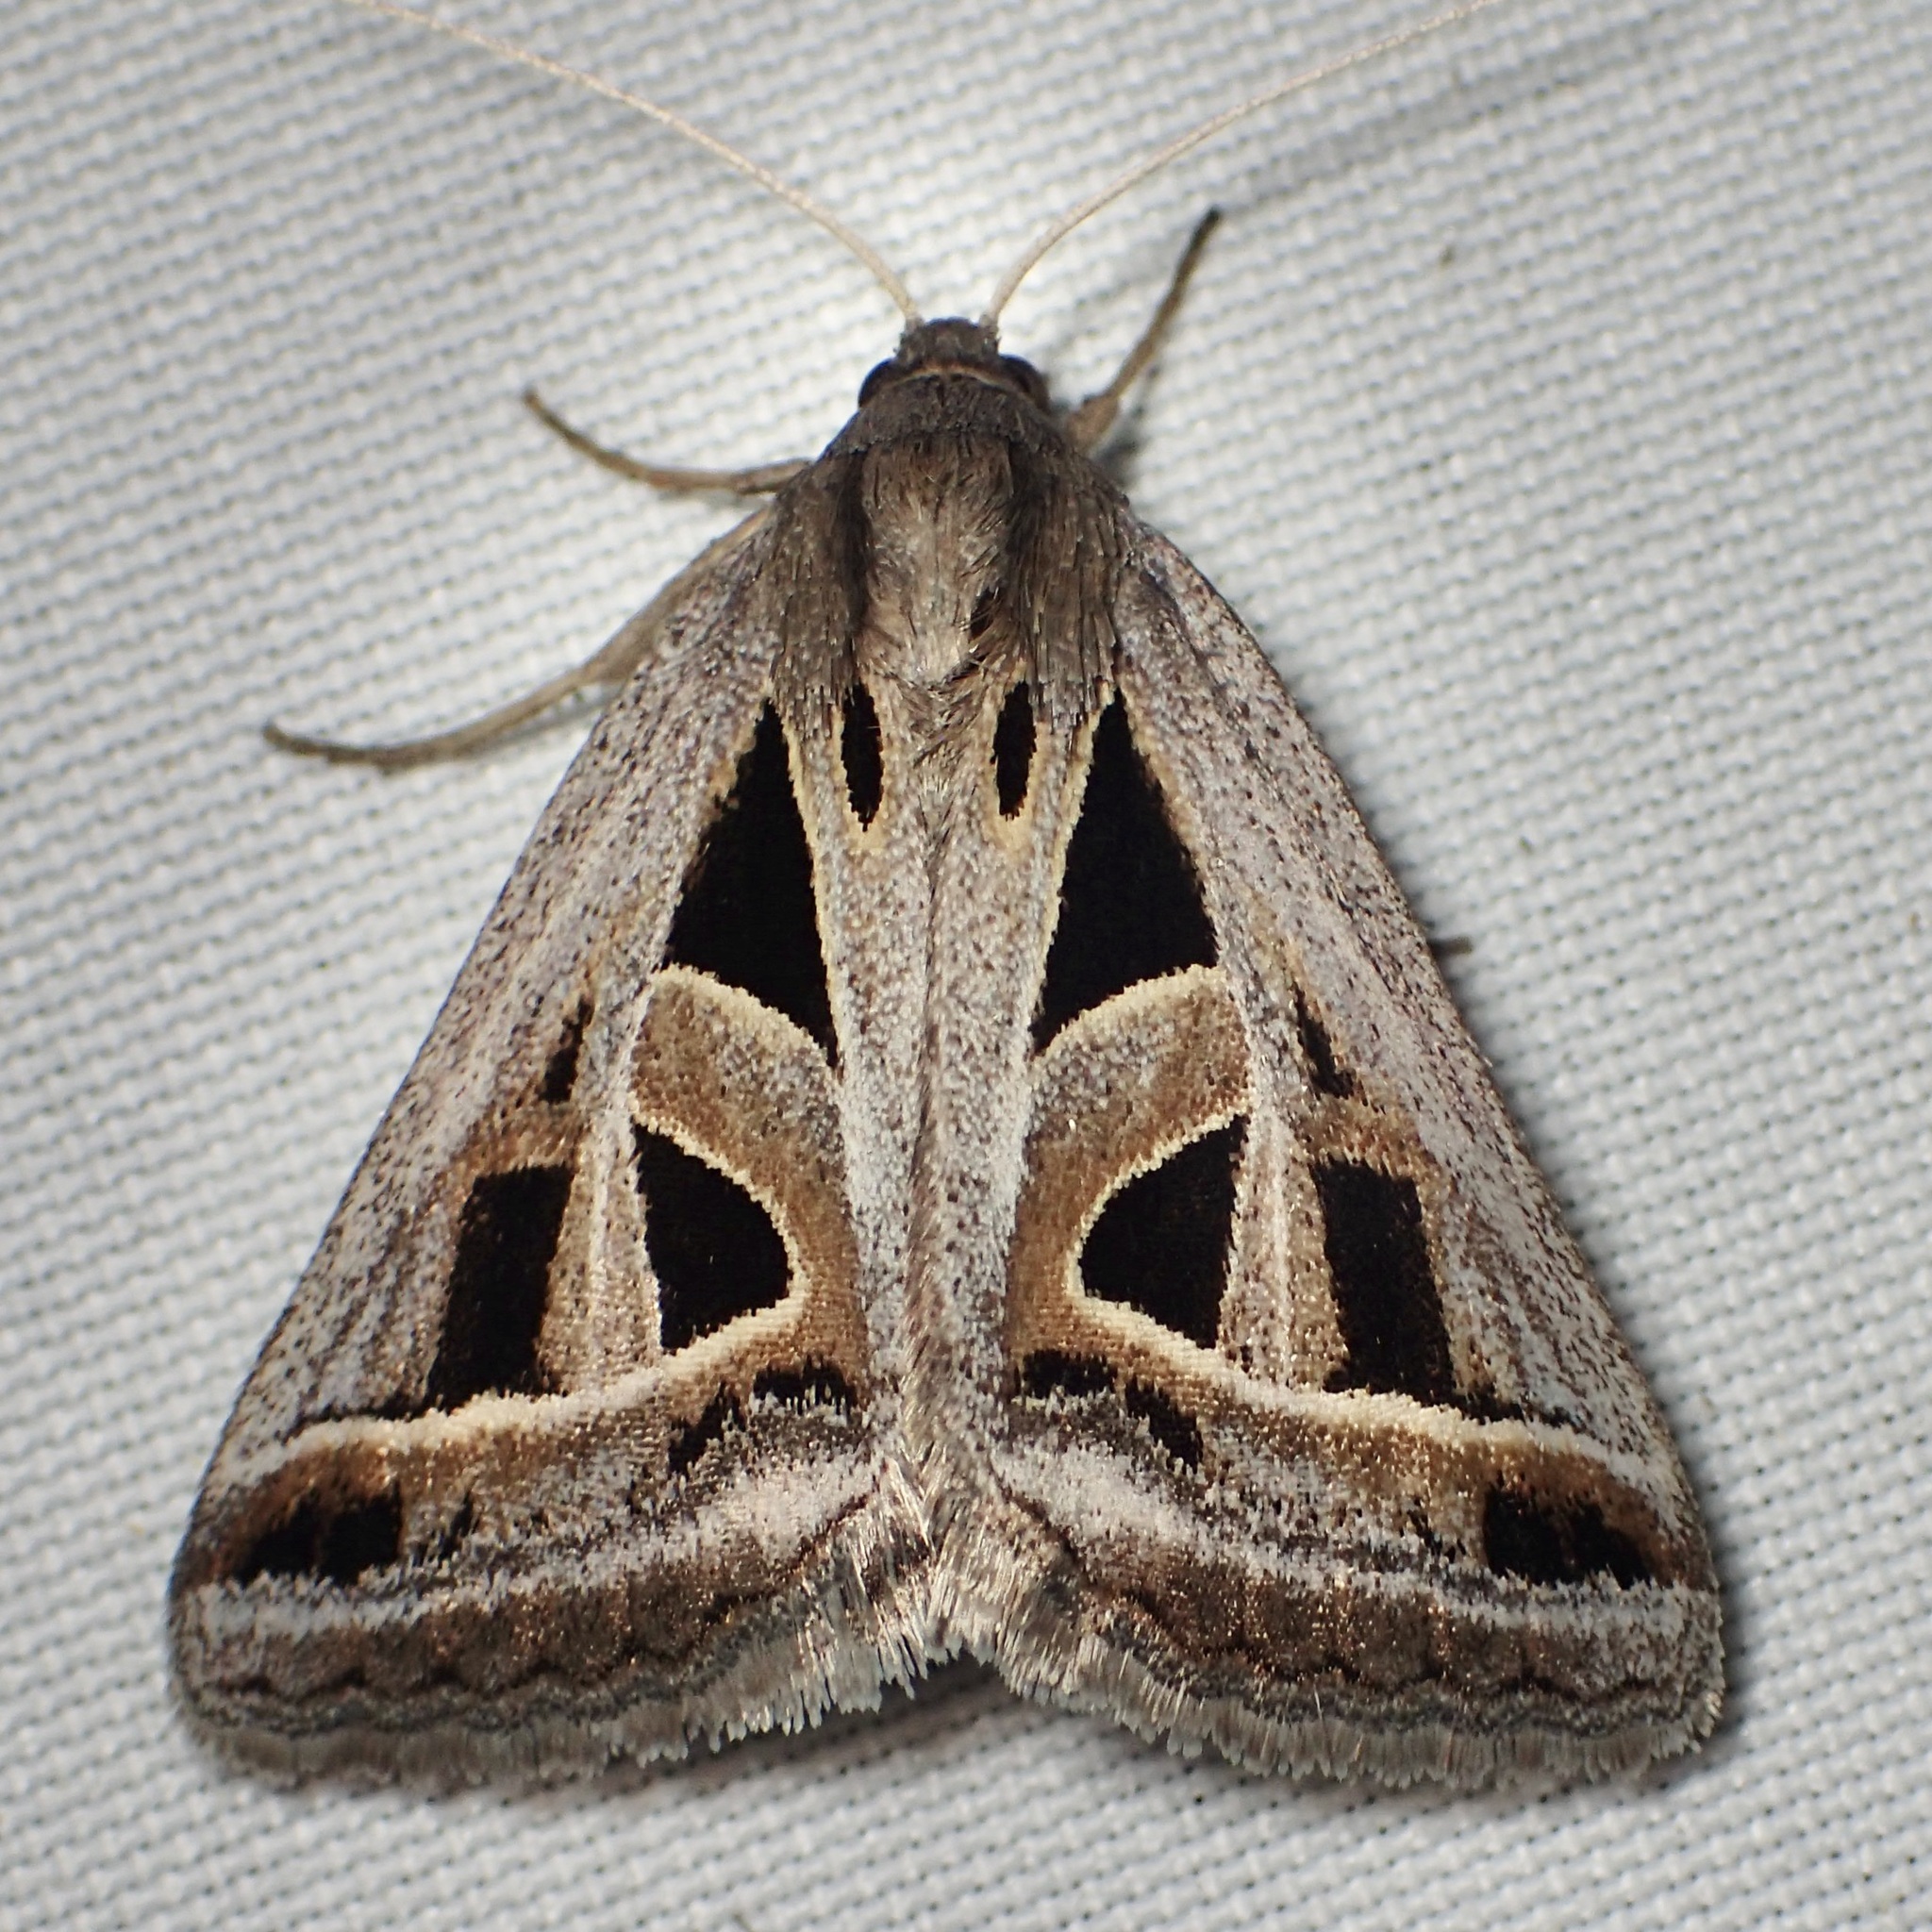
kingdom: Animalia
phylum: Arthropoda
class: Insecta
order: Lepidoptera
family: Erebidae
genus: Callistege
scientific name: Callistege diagonalis
